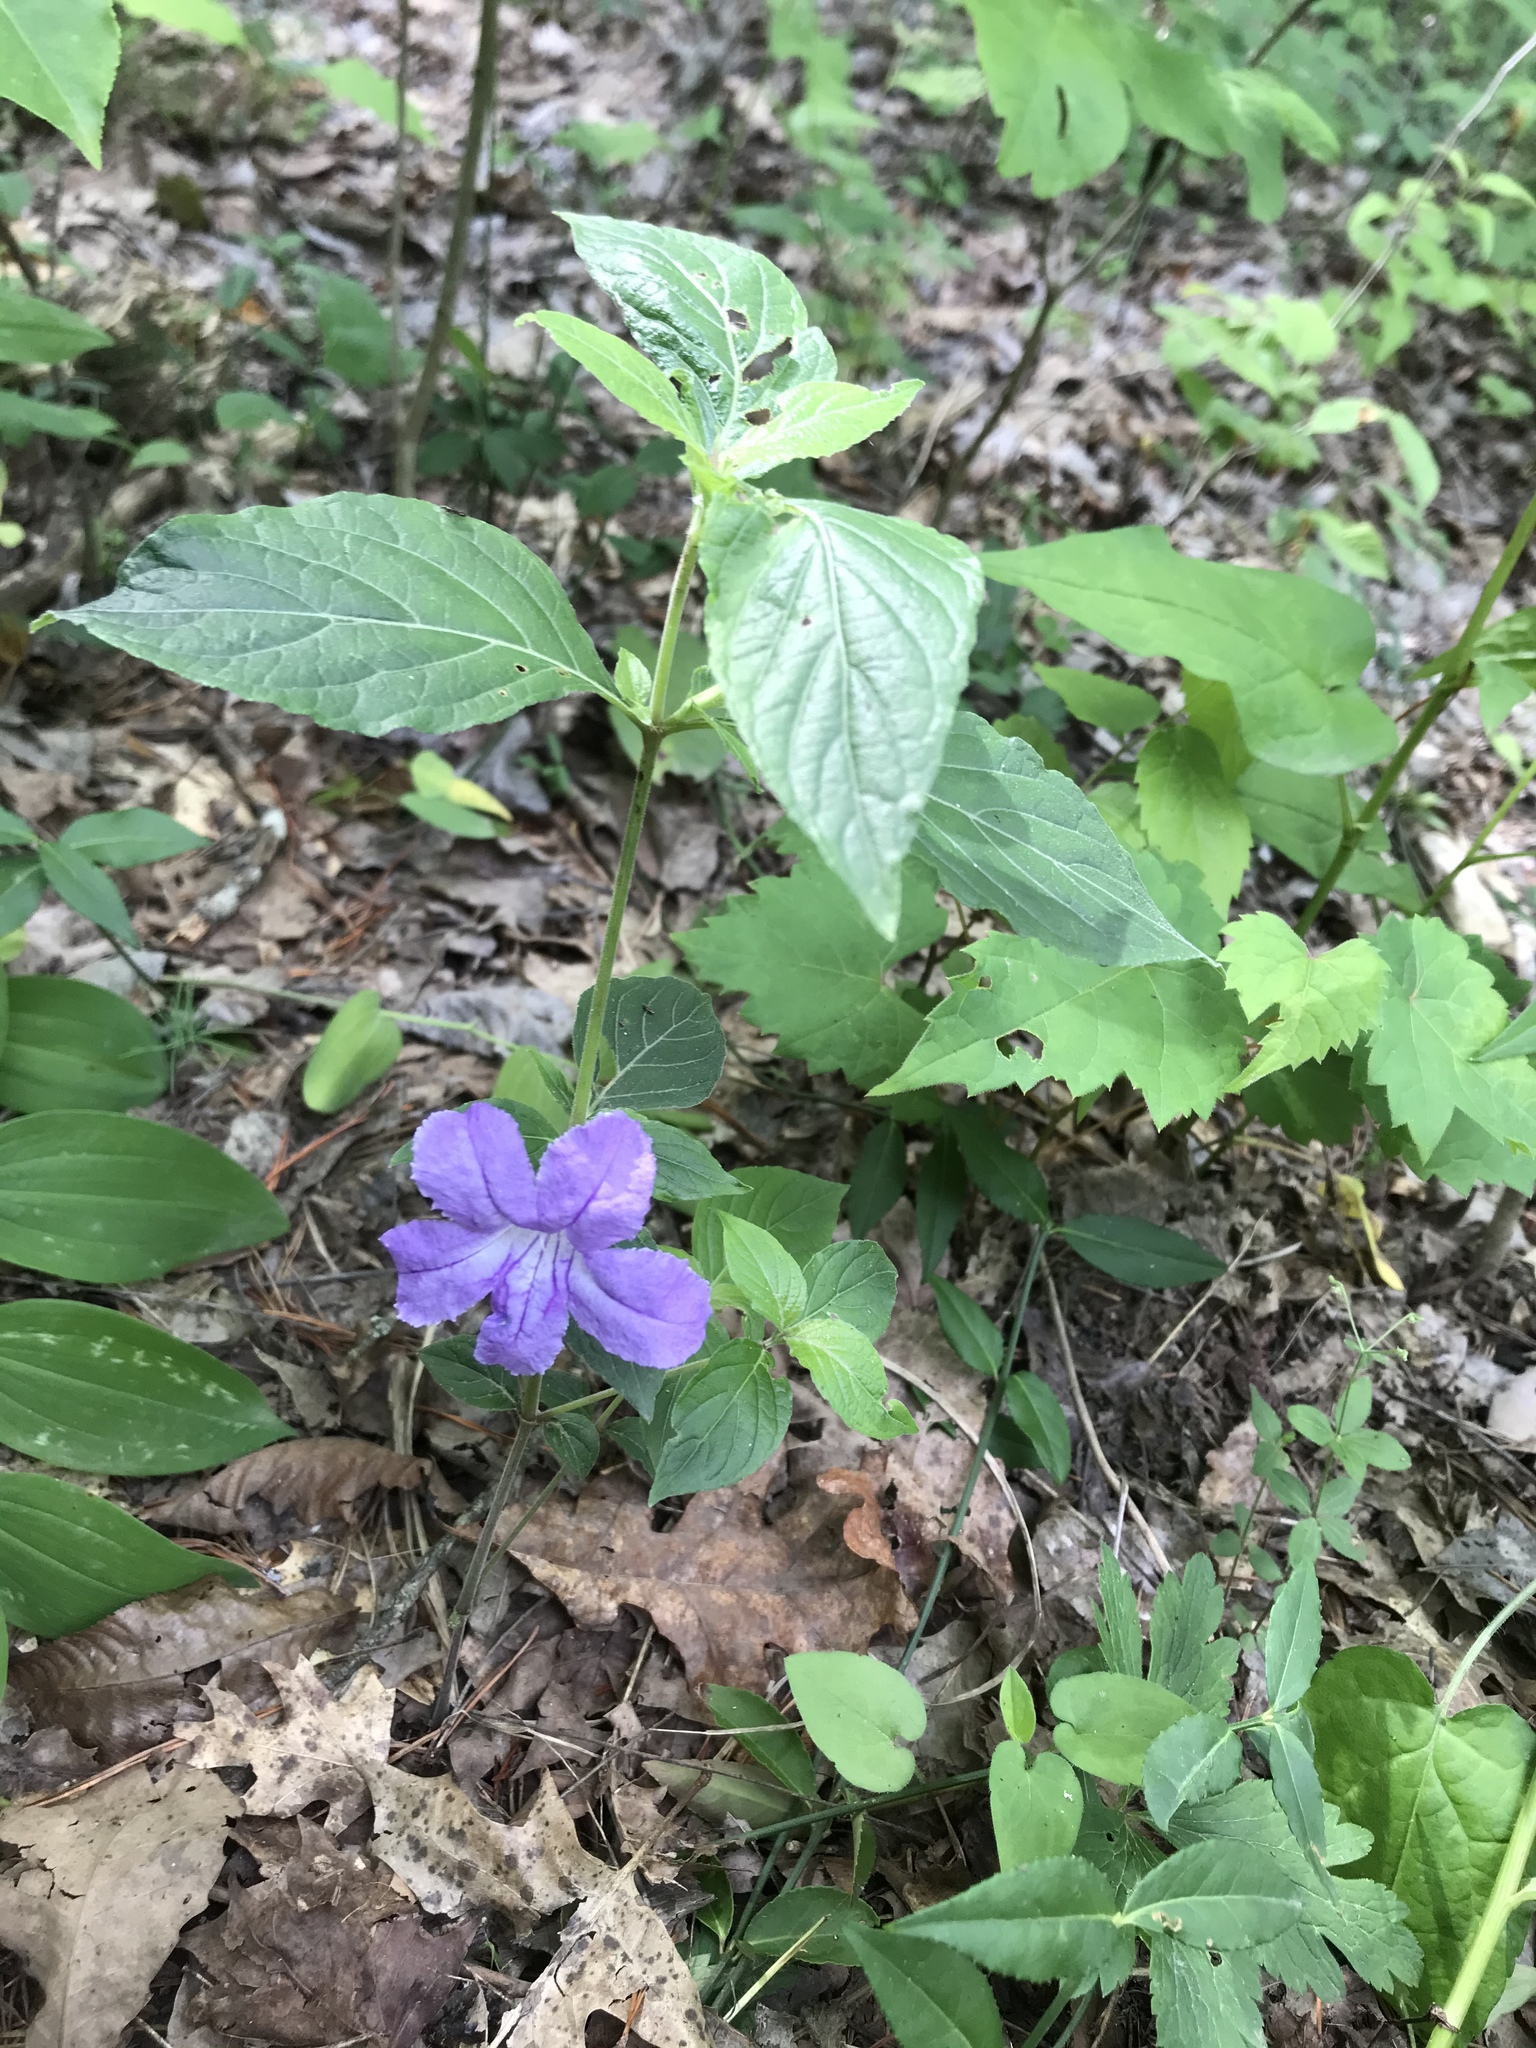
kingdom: Plantae
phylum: Tracheophyta
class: Magnoliopsida
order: Lamiales
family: Acanthaceae
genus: Ruellia
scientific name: Ruellia purshiana
